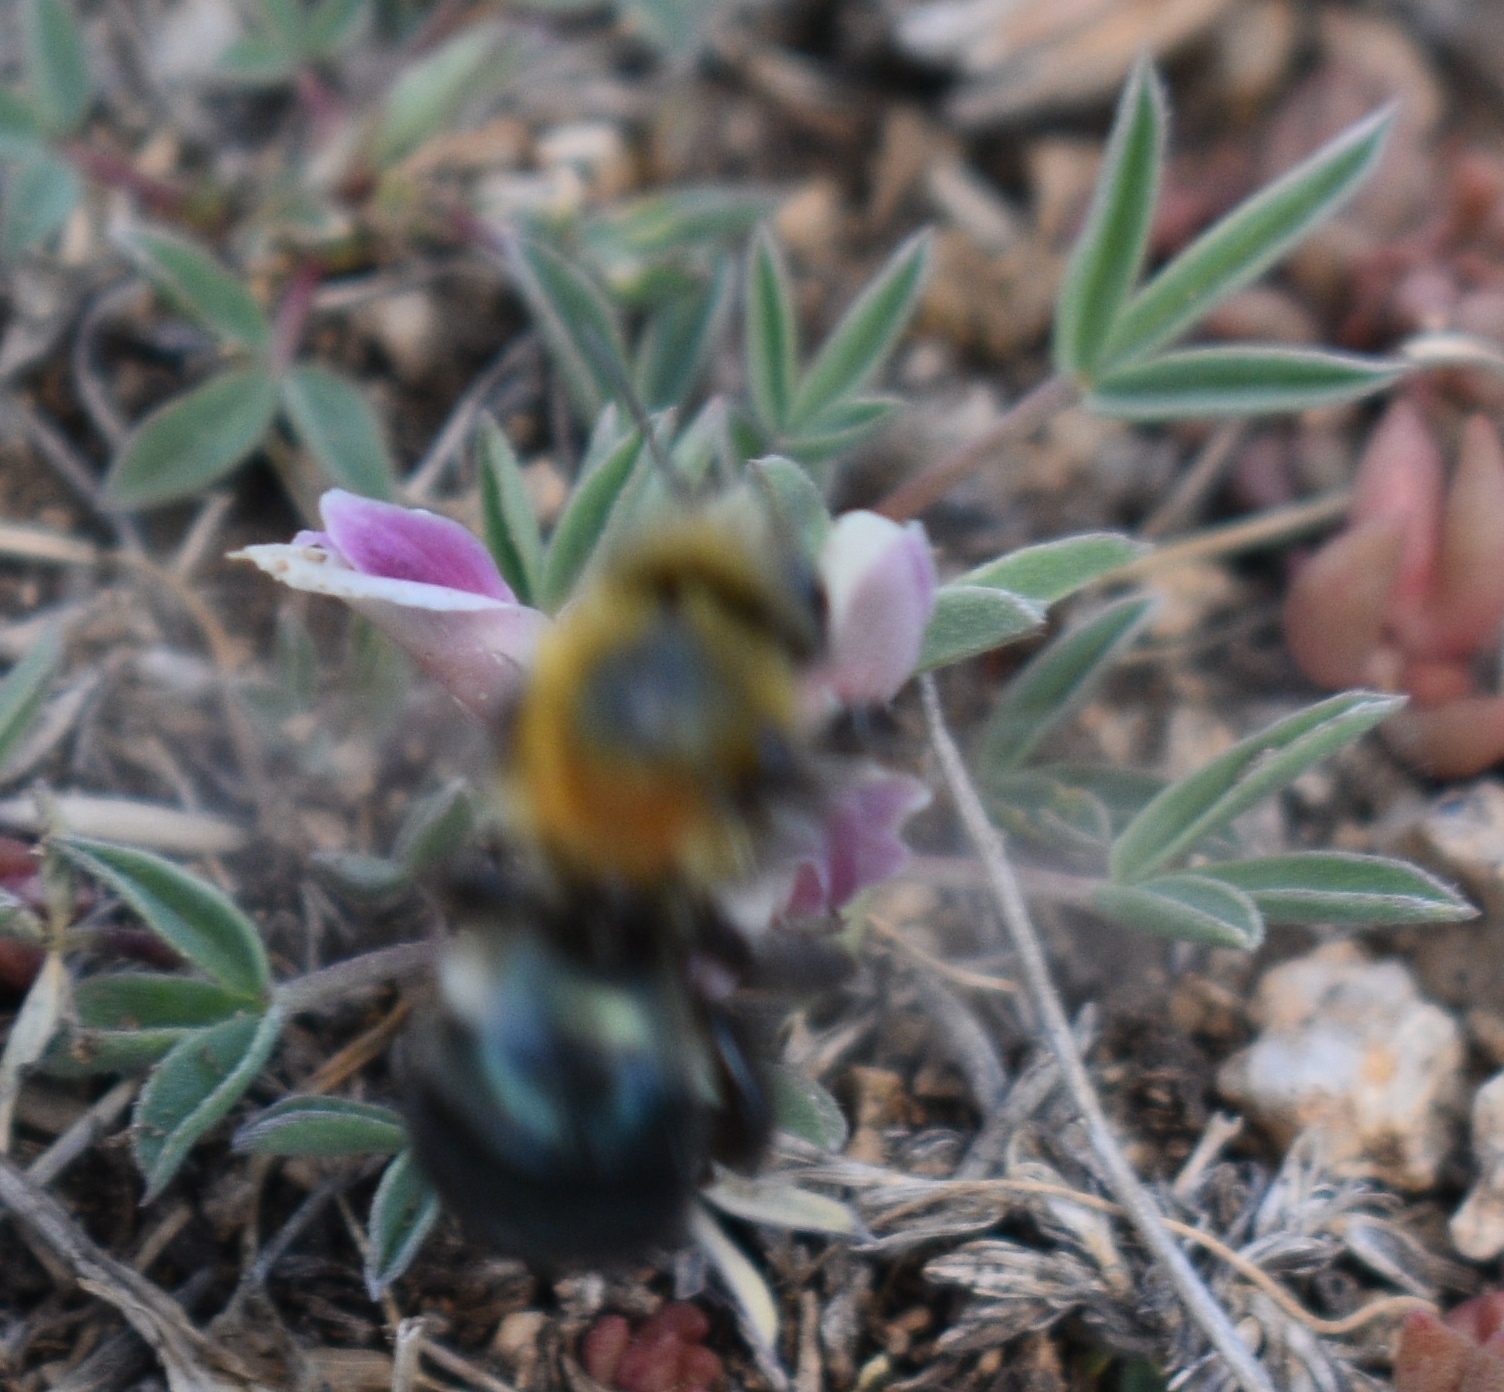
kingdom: Animalia
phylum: Arthropoda
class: Insecta
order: Hymenoptera
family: Megachilidae
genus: Osmia
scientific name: Osmia
